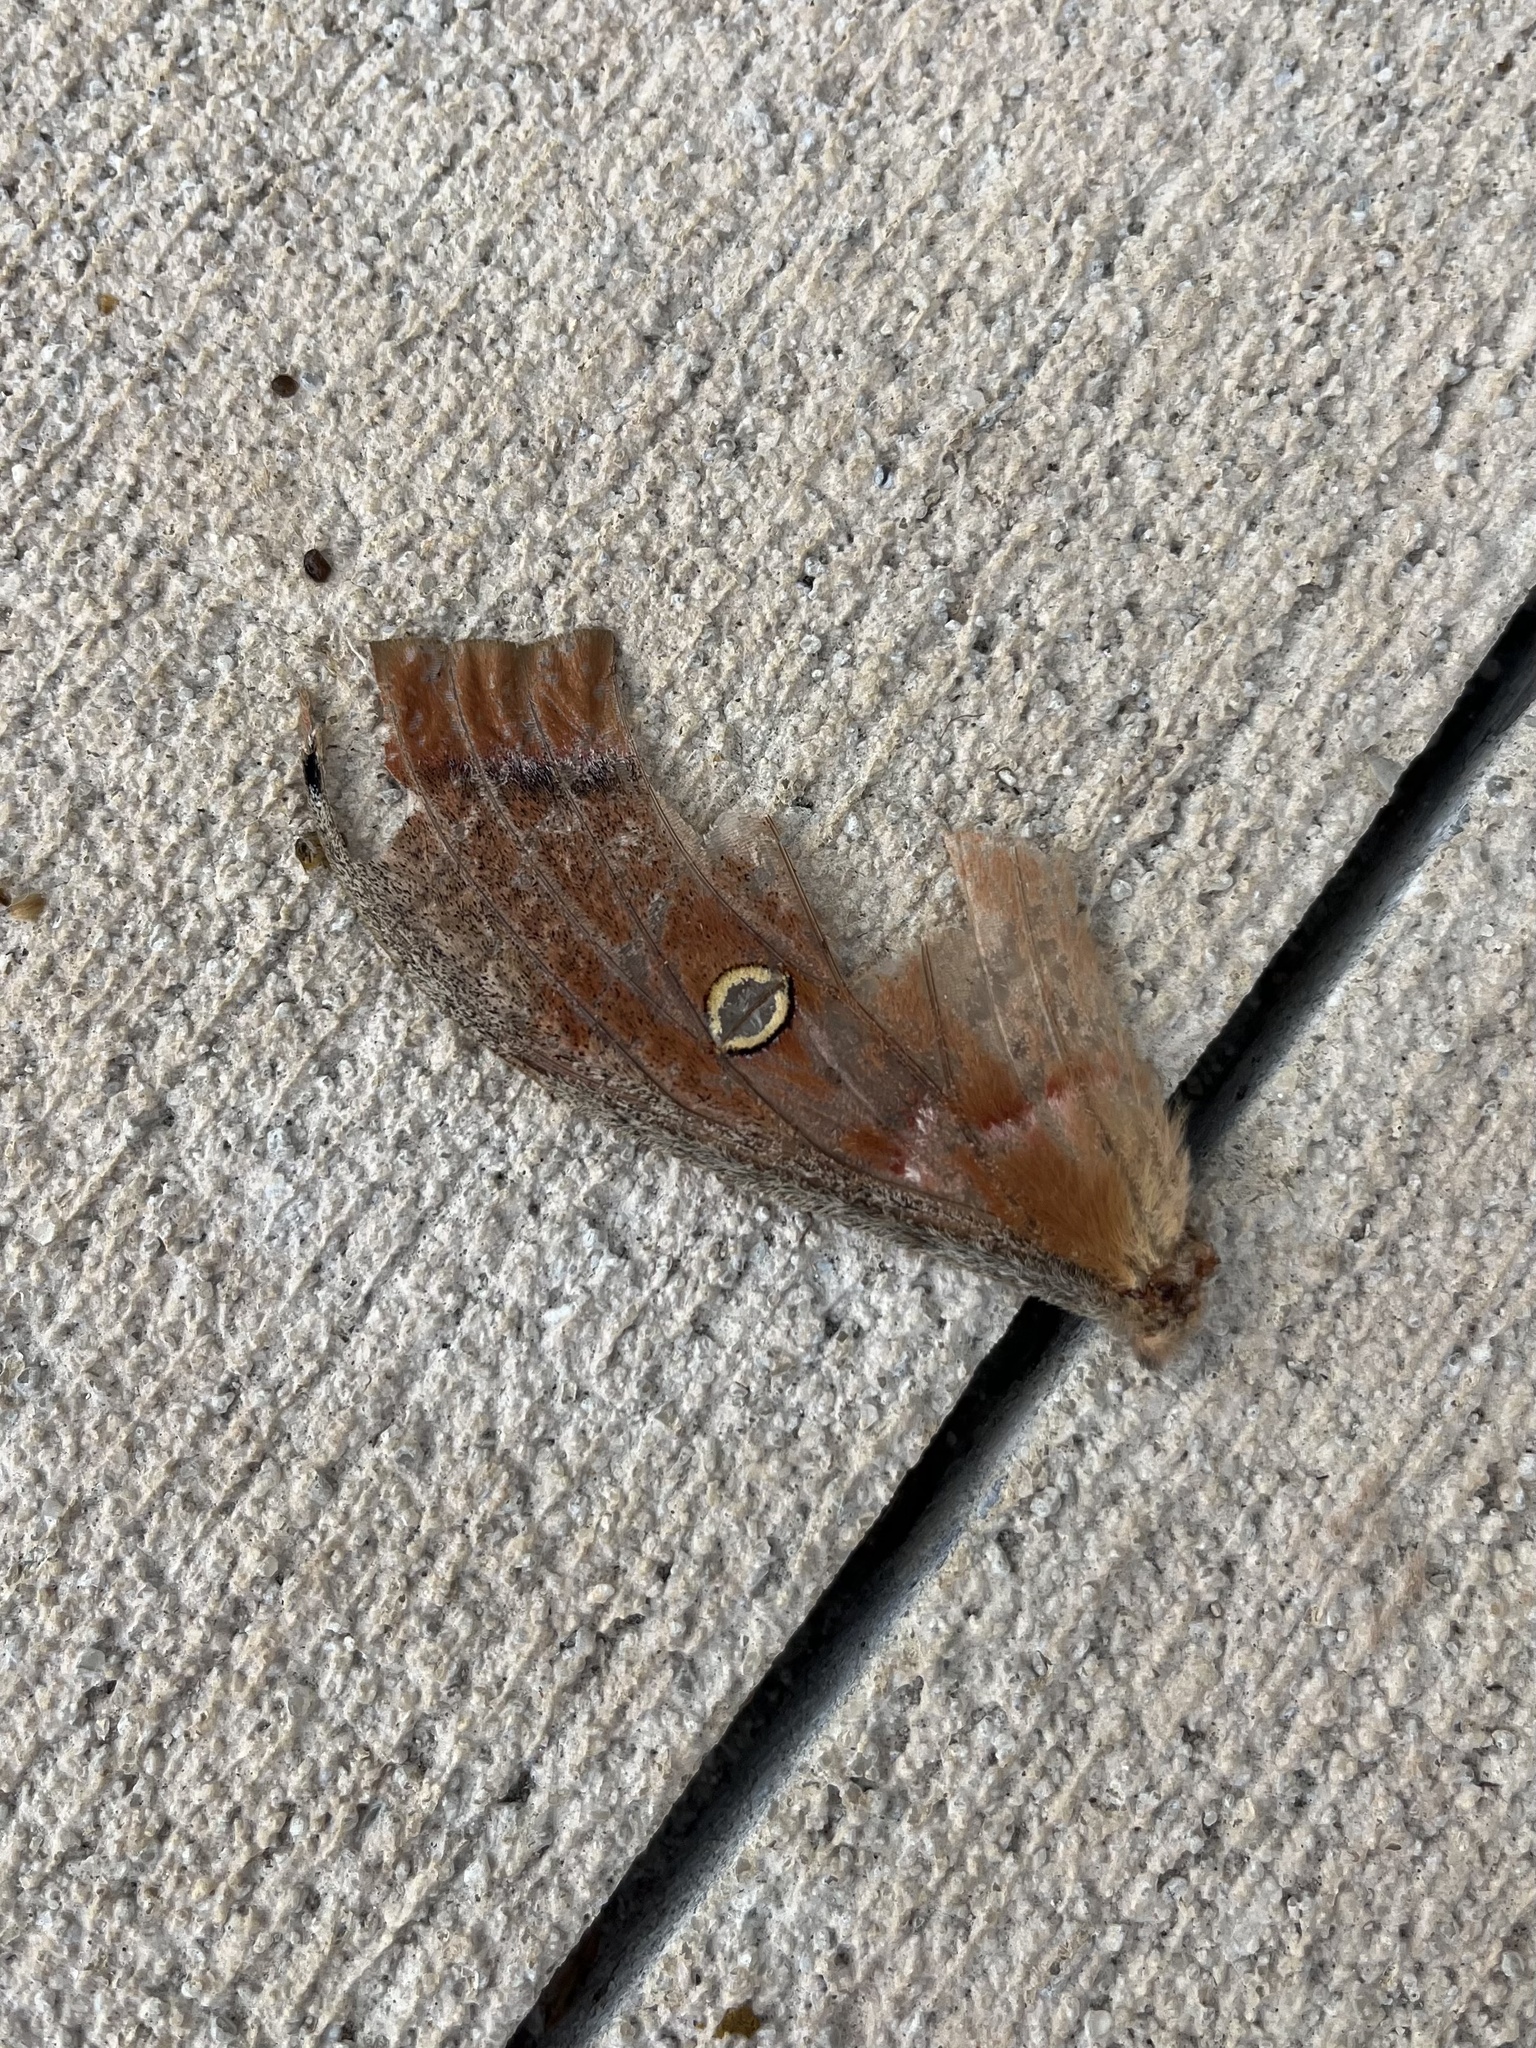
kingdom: Animalia
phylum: Arthropoda
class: Insecta
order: Lepidoptera
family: Saturniidae
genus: Antheraea
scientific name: Antheraea polyphemus
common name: Polyphemus moth
